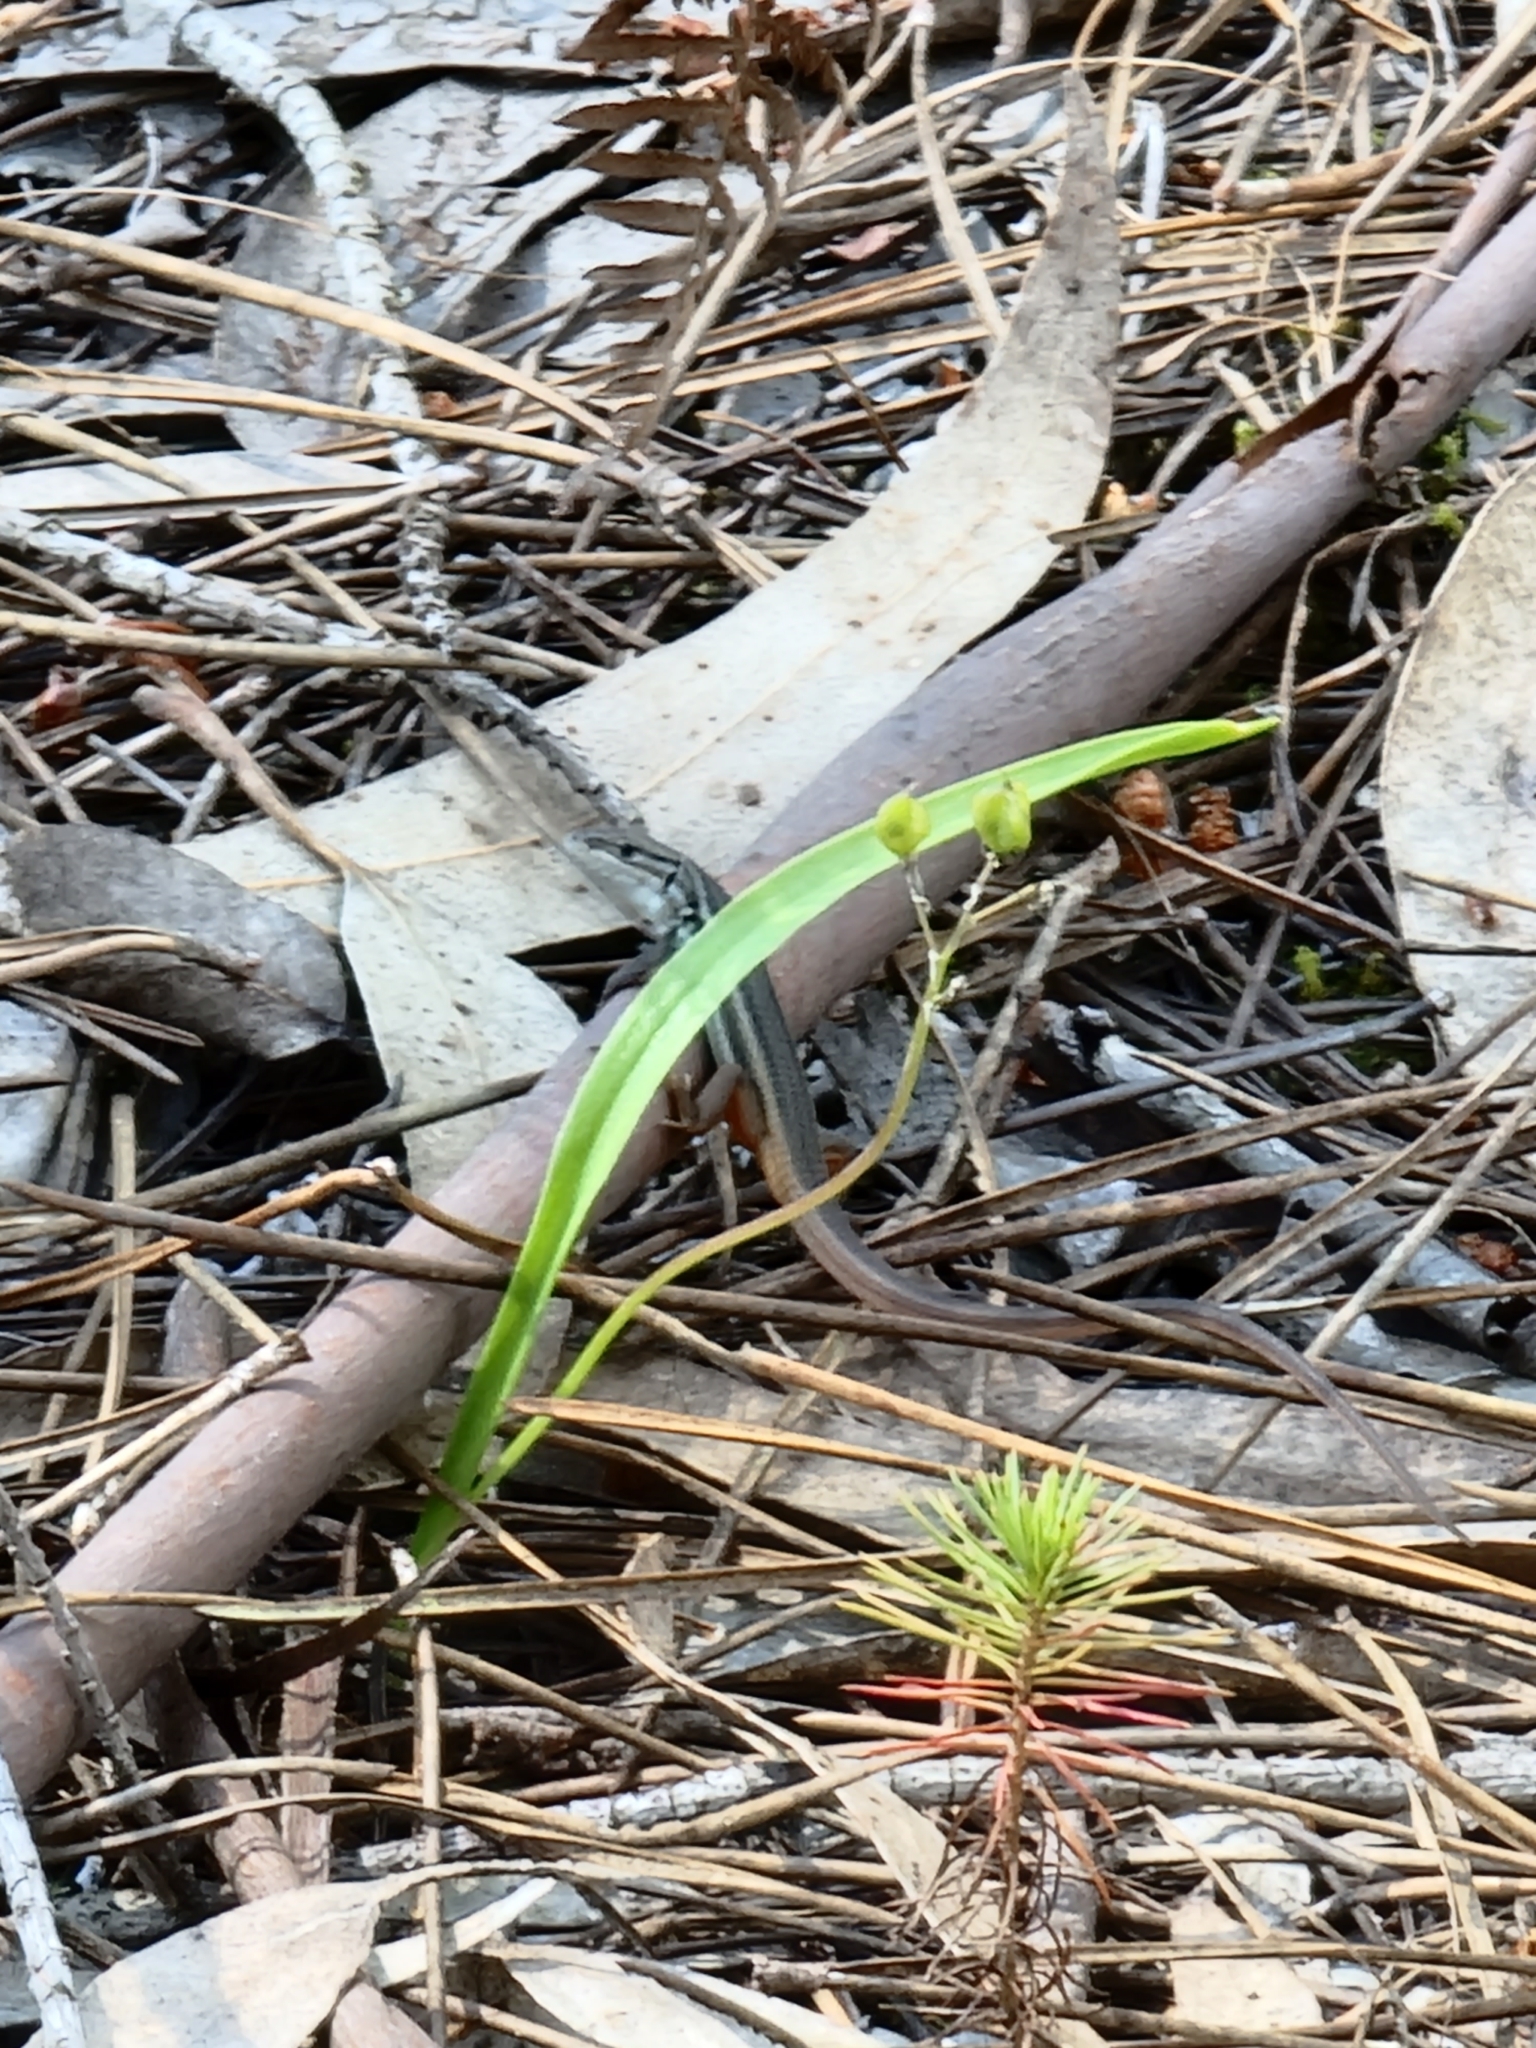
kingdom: Animalia
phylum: Chordata
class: Squamata
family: Lacertidae
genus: Psammodromus
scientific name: Psammodromus algirus
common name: Algerian psammodromus
